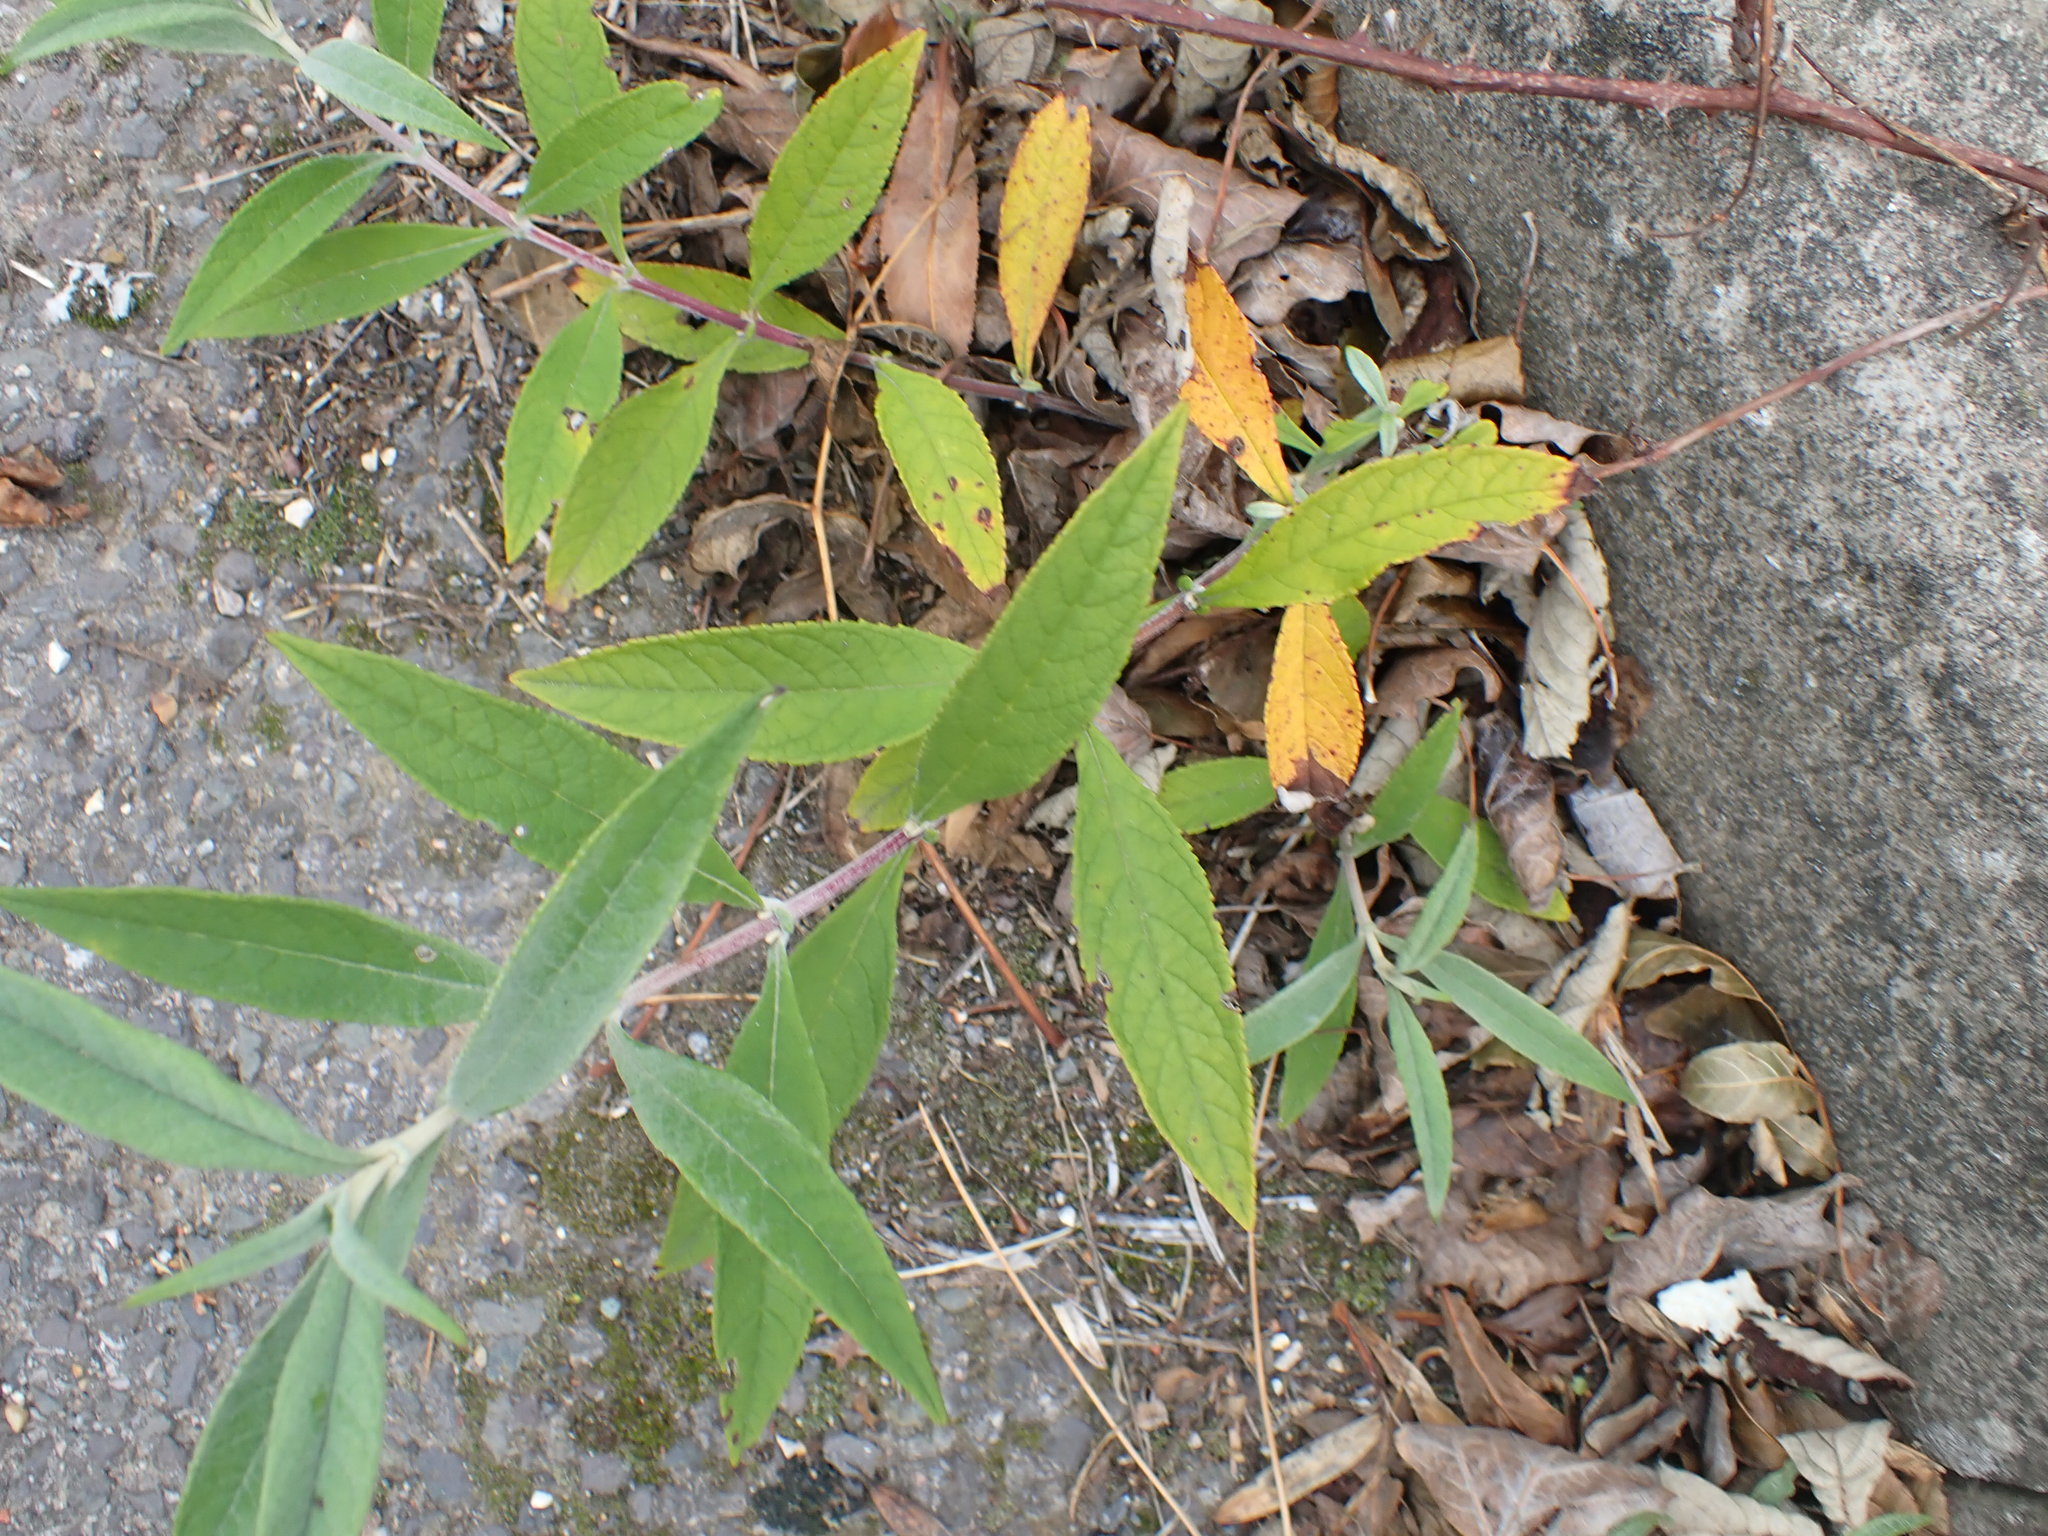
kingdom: Plantae
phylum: Tracheophyta
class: Magnoliopsida
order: Lamiales
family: Scrophulariaceae
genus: Buddleja
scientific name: Buddleja davidii
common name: Butterfly-bush
